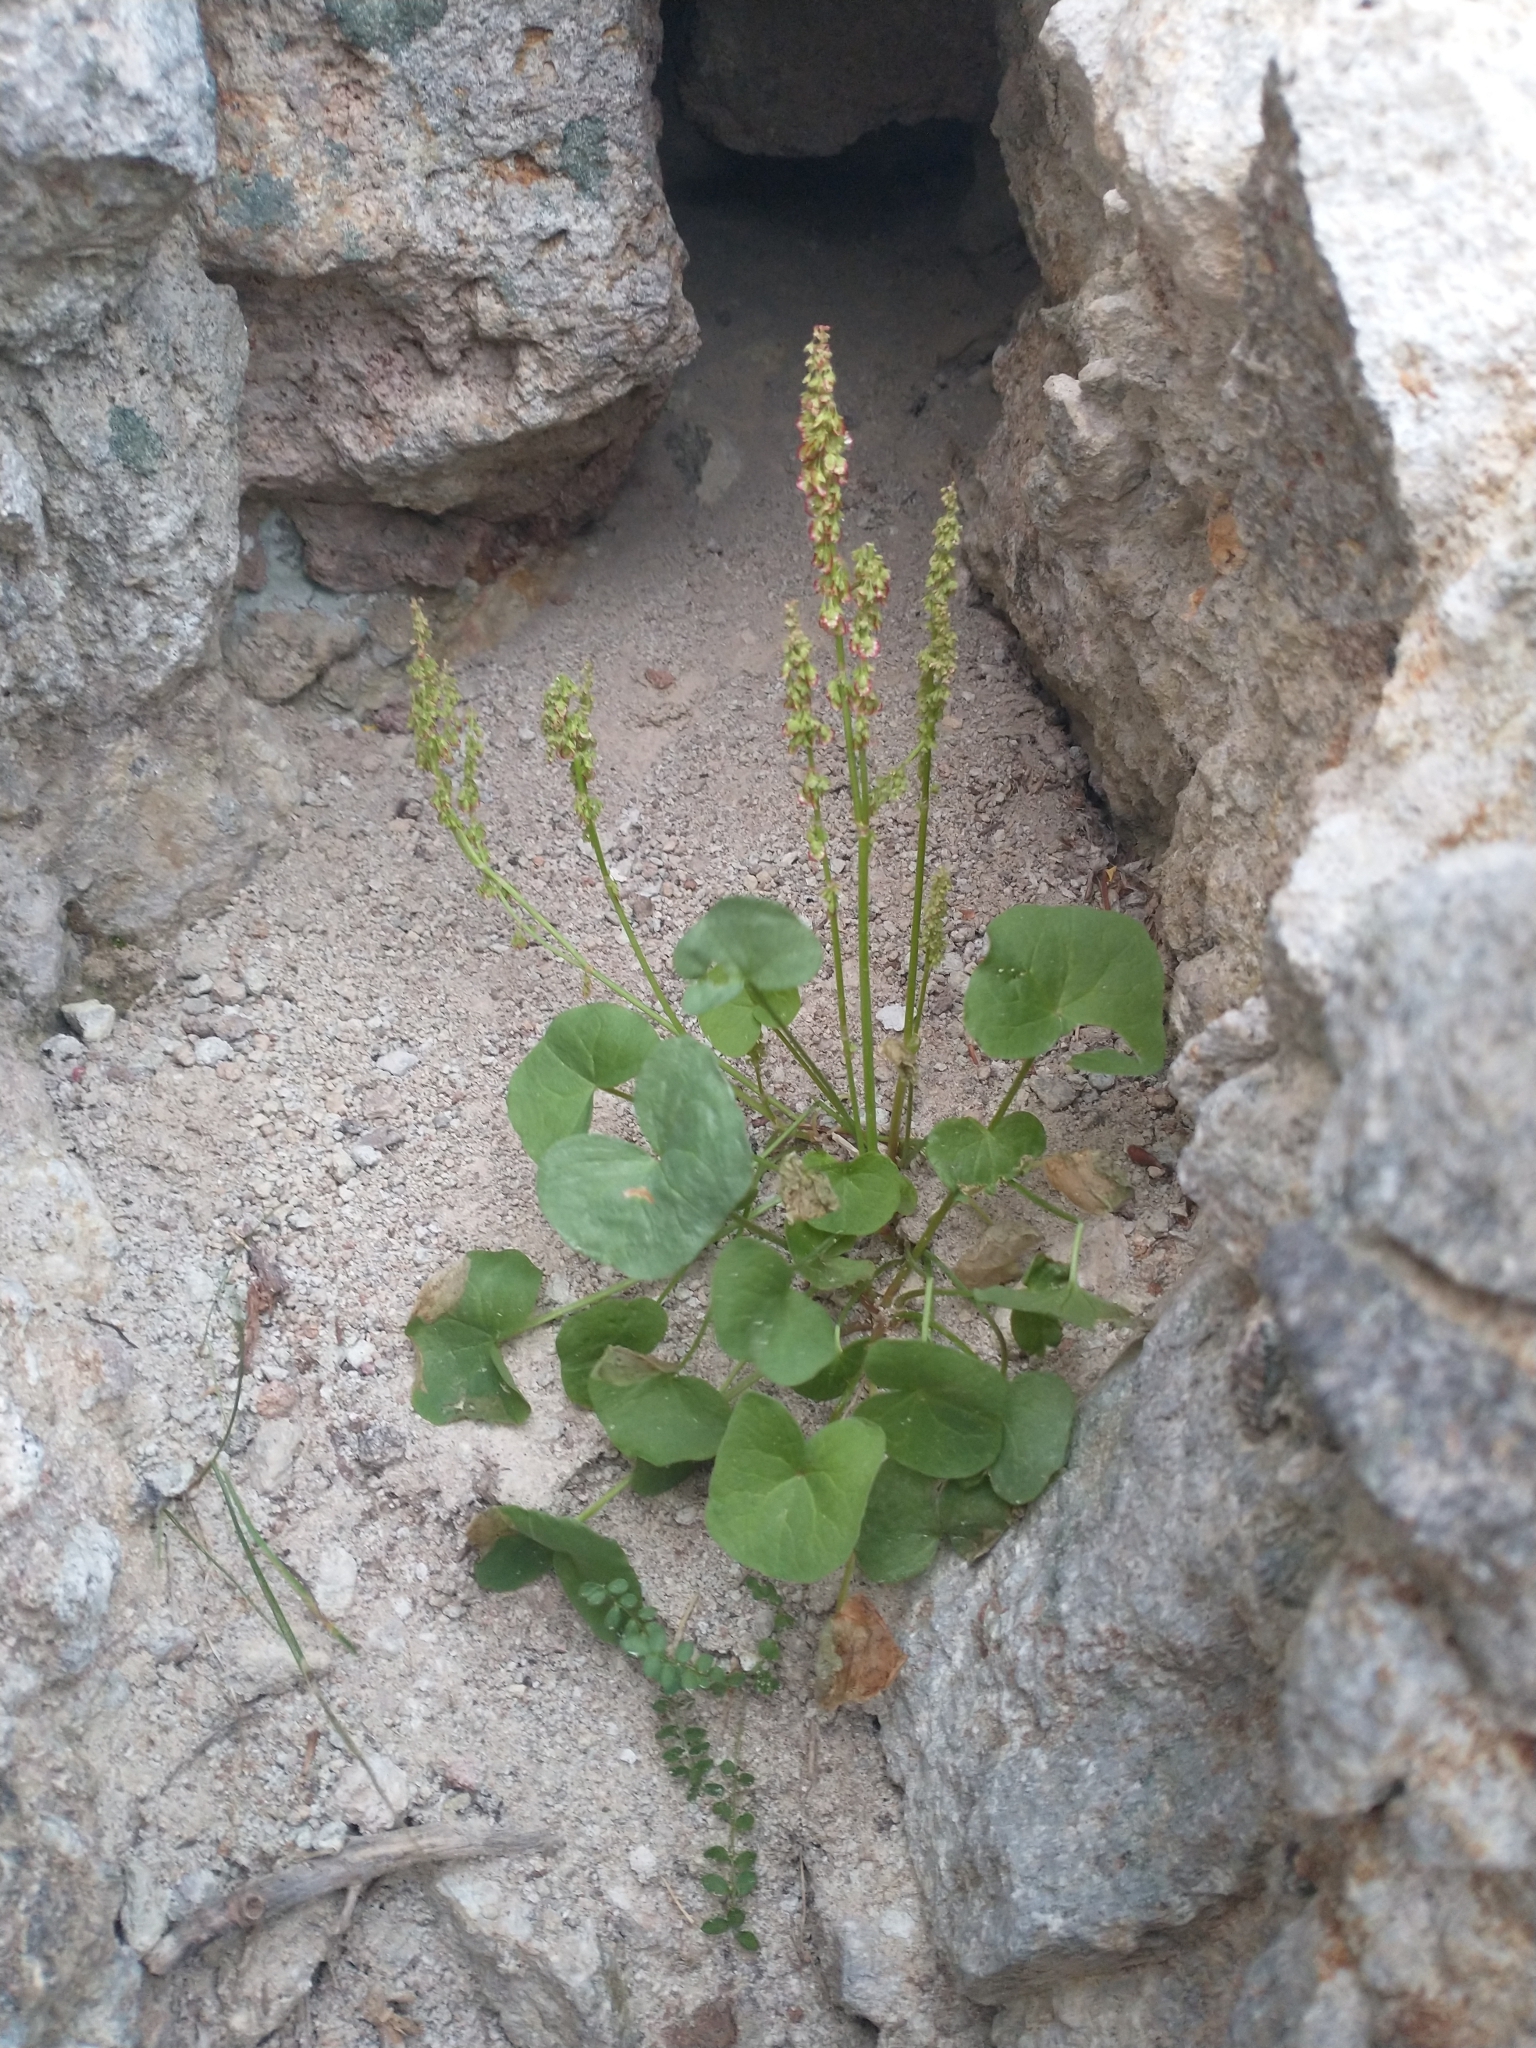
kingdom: Plantae
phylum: Tracheophyta
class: Magnoliopsida
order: Caryophyllales
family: Polygonaceae
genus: Oxyria
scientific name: Oxyria digyna
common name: Alpine mountain-sorrel
